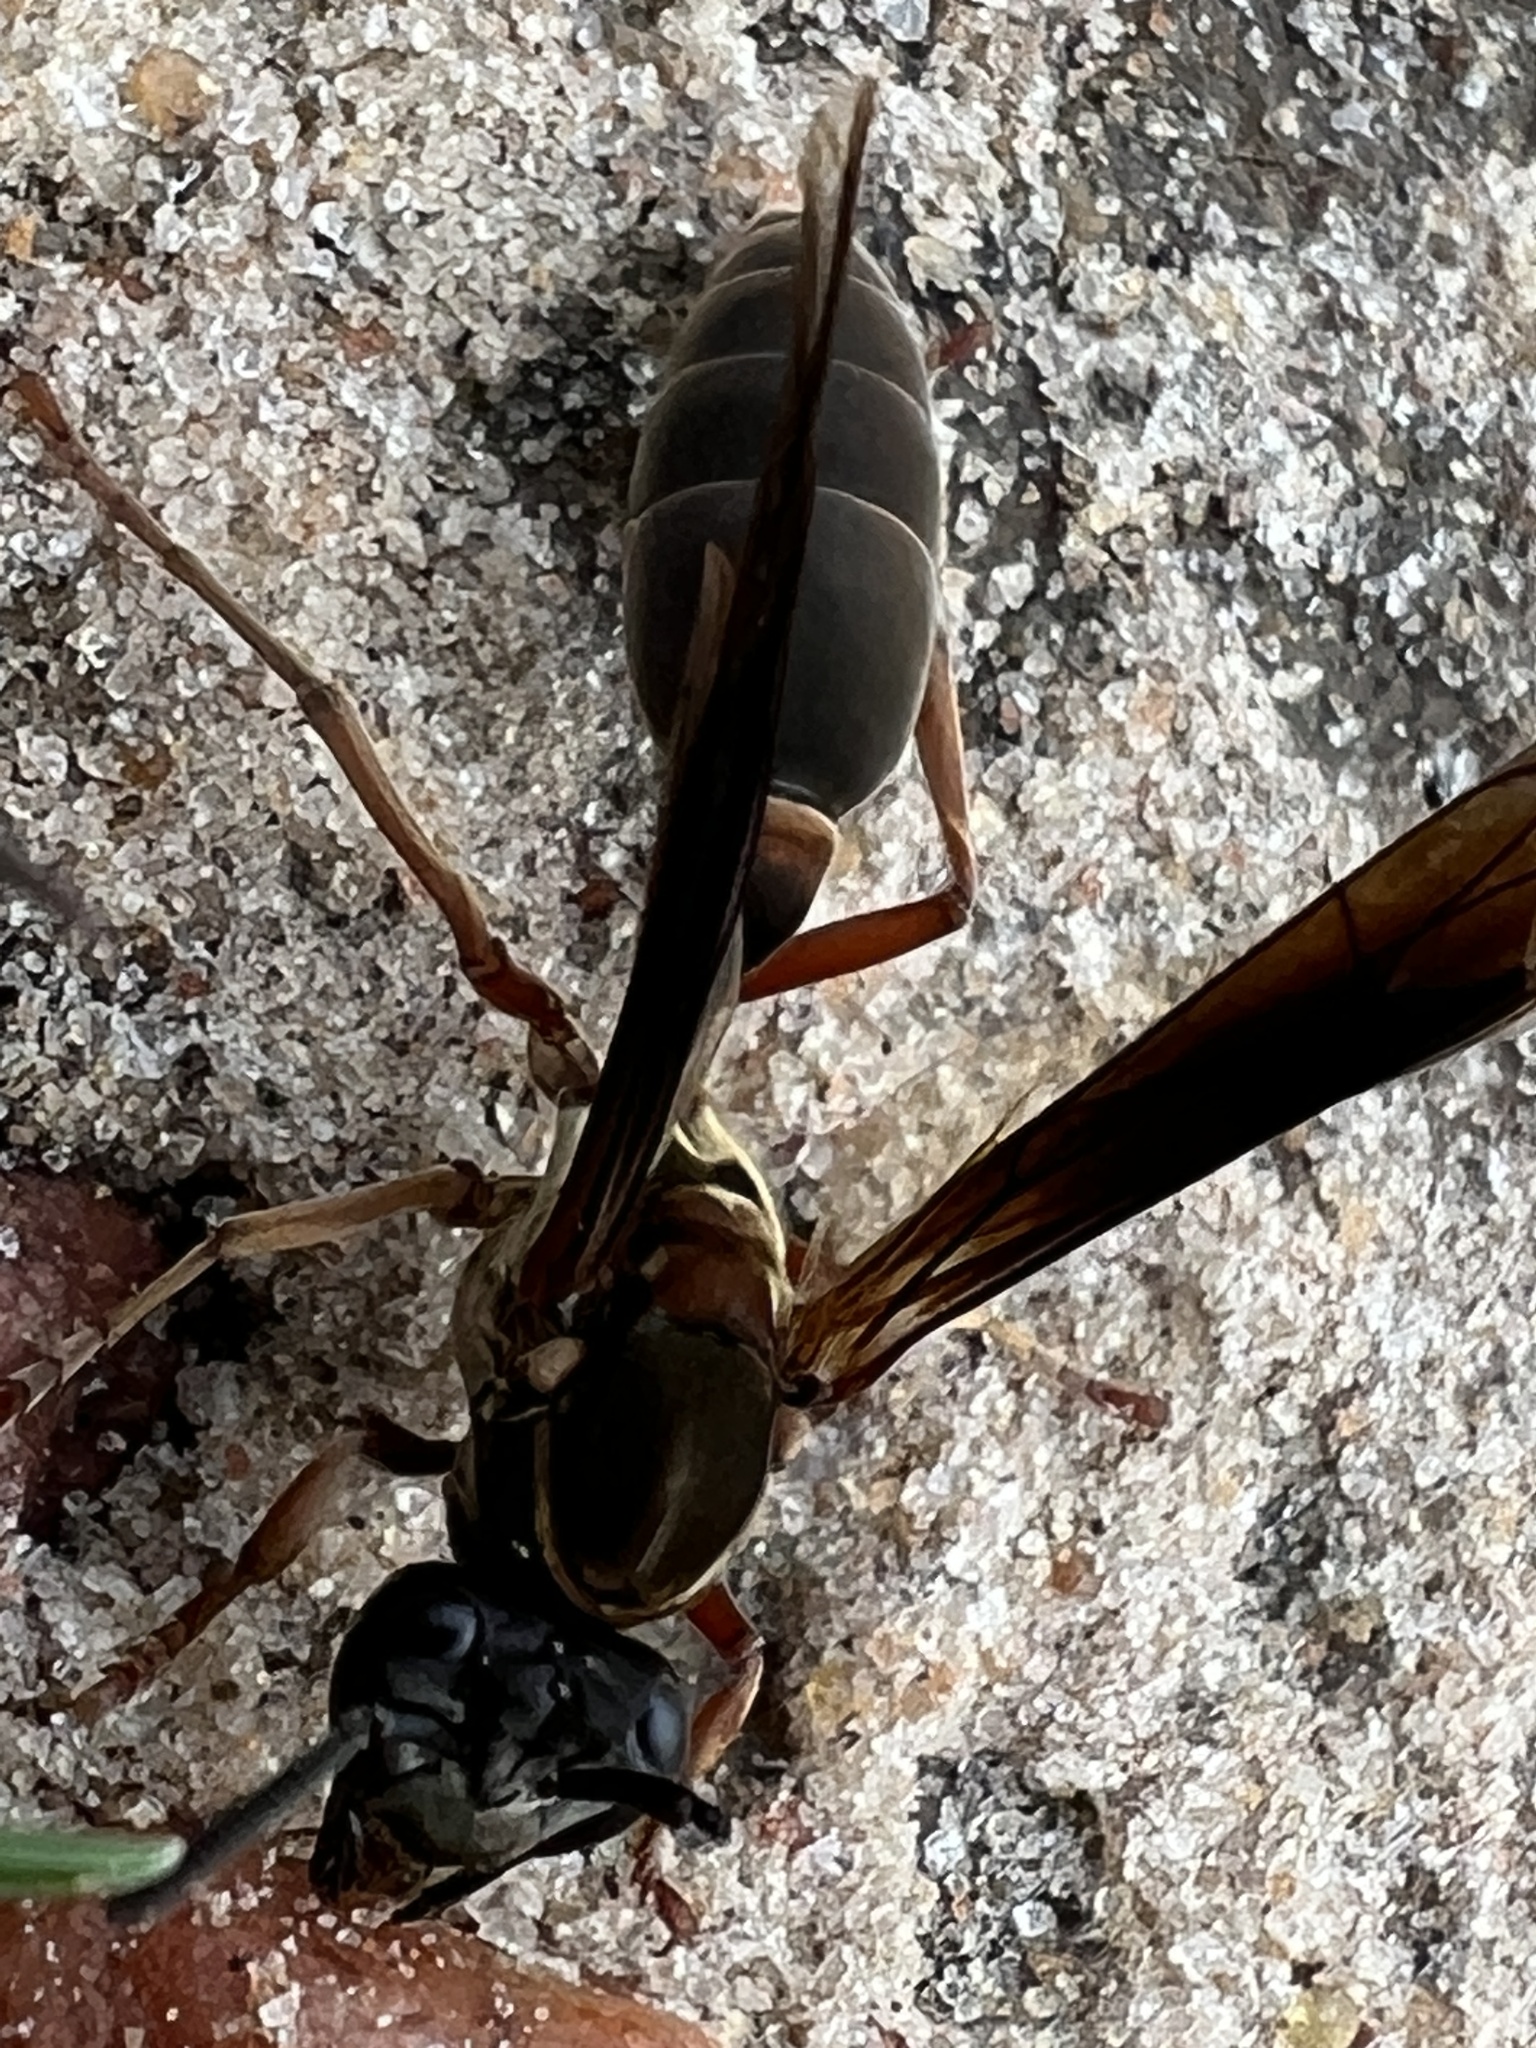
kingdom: Animalia
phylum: Arthropoda
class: Insecta
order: Hymenoptera
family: Eumenidae
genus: Polybia
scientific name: Polybia sericea
